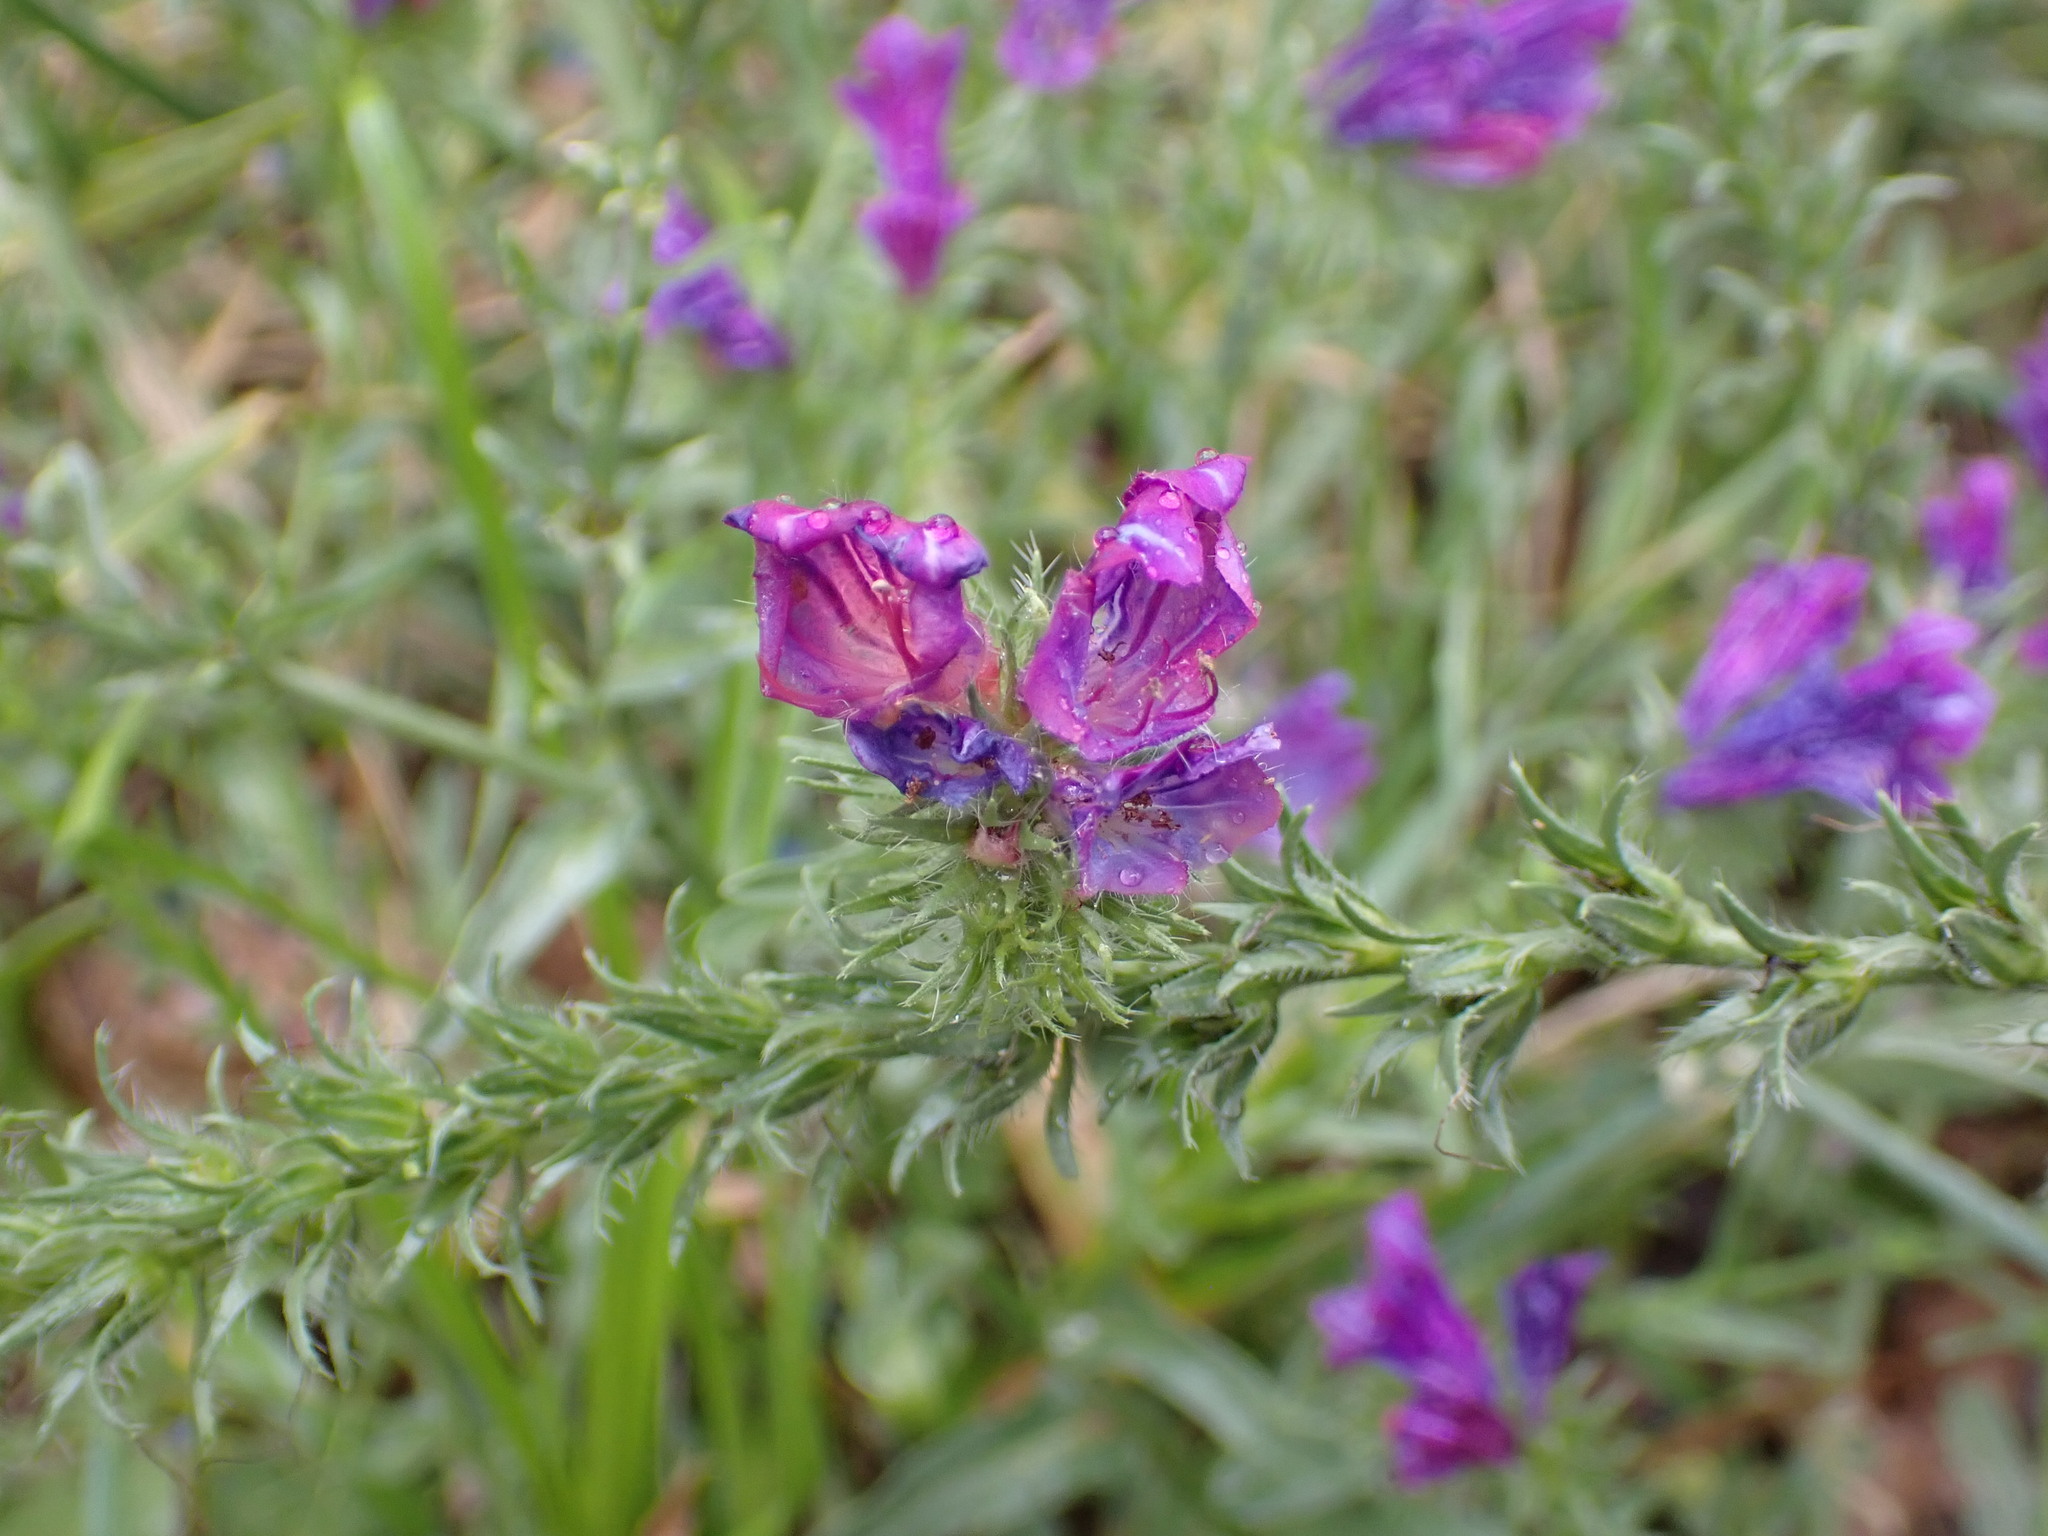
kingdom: Plantae
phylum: Tracheophyta
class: Magnoliopsida
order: Boraginales
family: Boraginaceae
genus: Echium
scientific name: Echium plantagineum
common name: Purple viper's-bugloss
